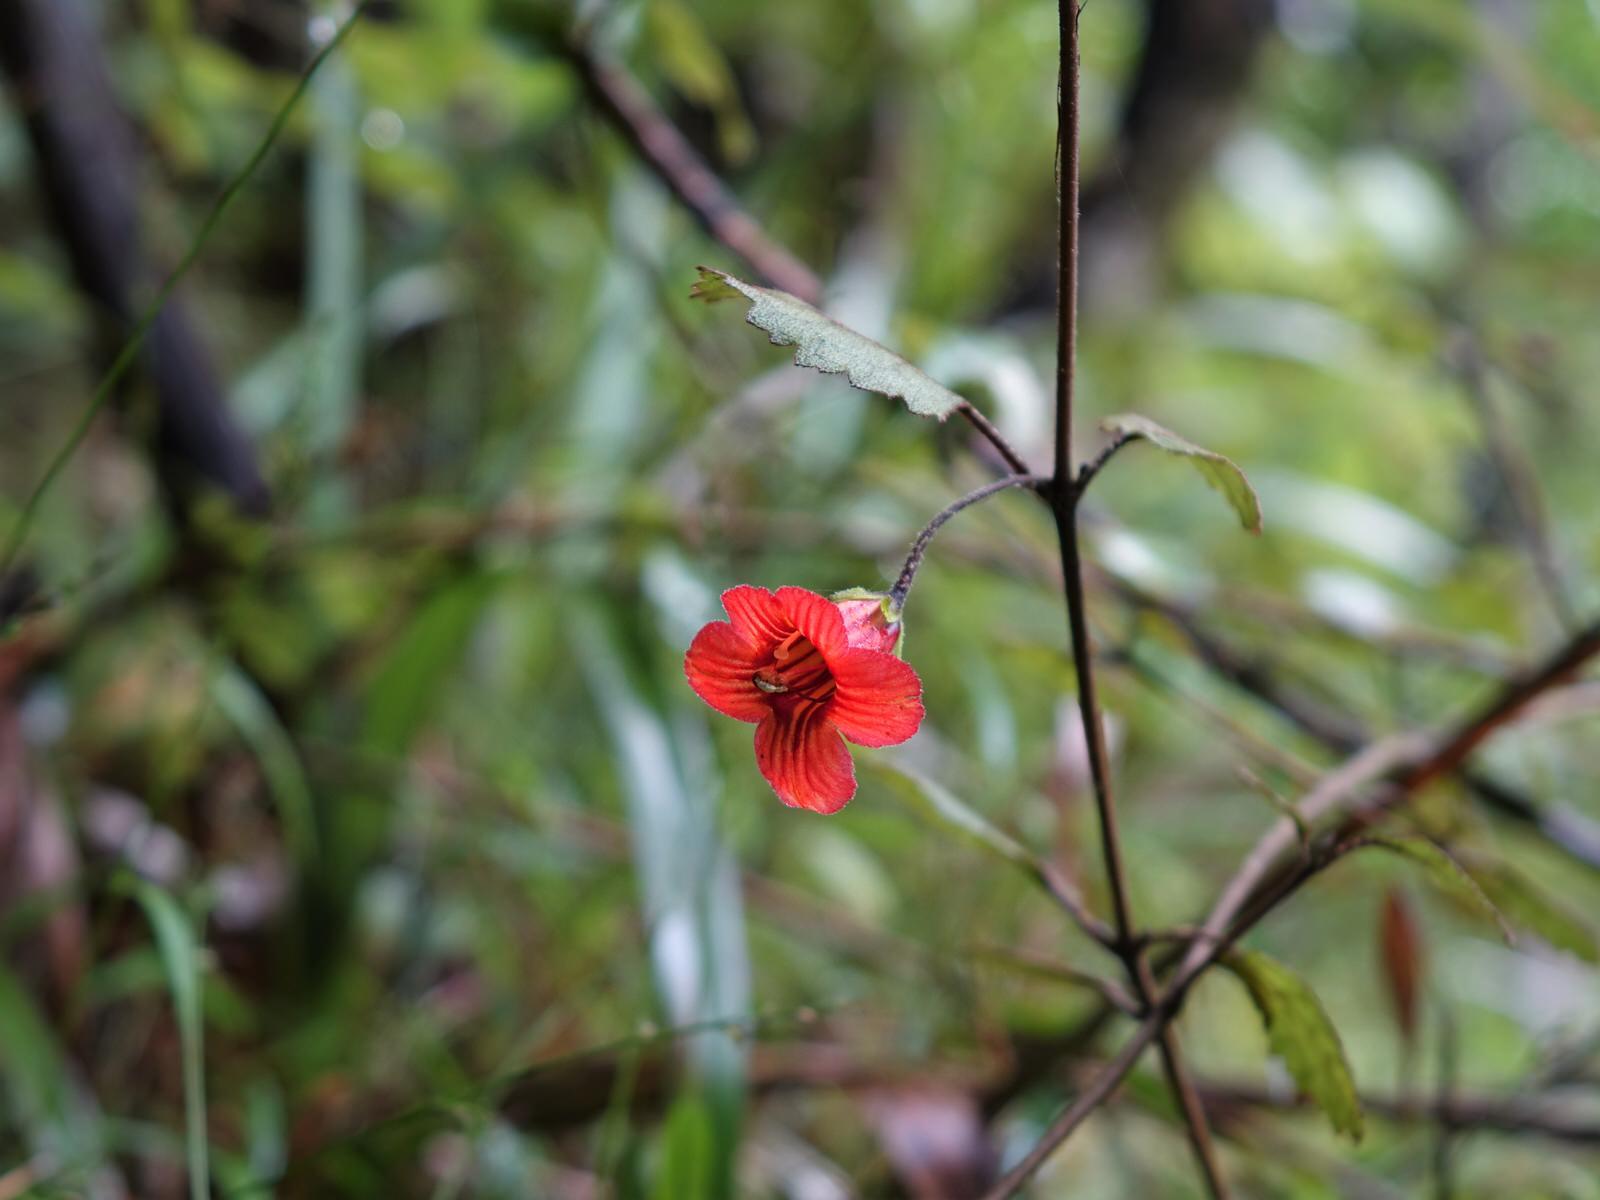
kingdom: Plantae
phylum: Tracheophyta
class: Magnoliopsida
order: Lamiales
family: Gesneriaceae
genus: Rhabdothamnus
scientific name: Rhabdothamnus solandri
